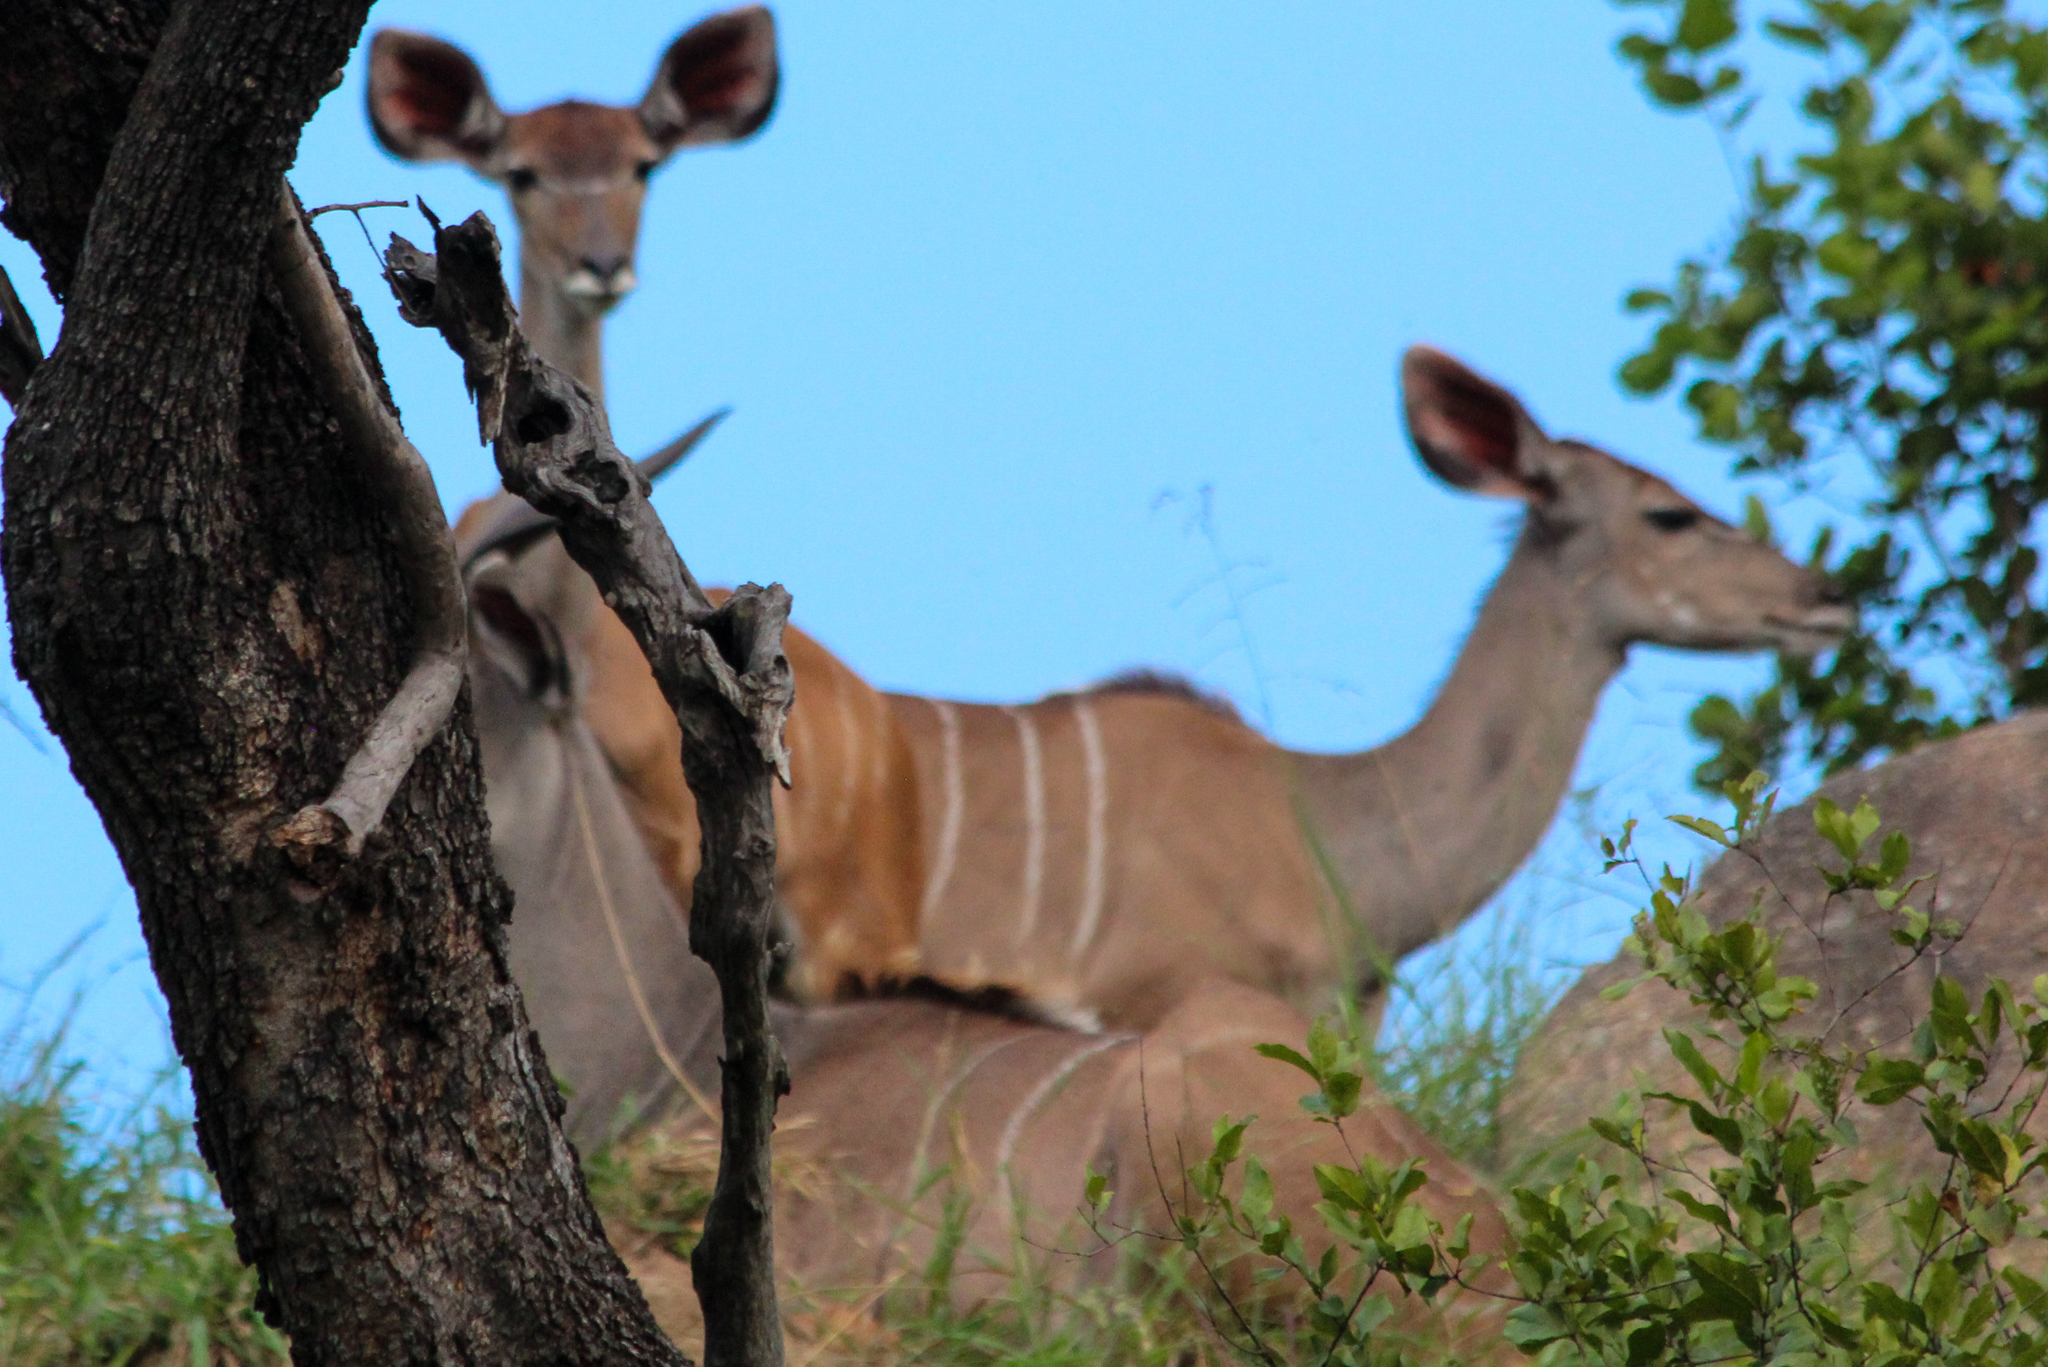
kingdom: Animalia
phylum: Chordata
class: Mammalia
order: Artiodactyla
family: Bovidae
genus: Tragelaphus
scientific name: Tragelaphus strepsiceros
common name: Greater kudu
